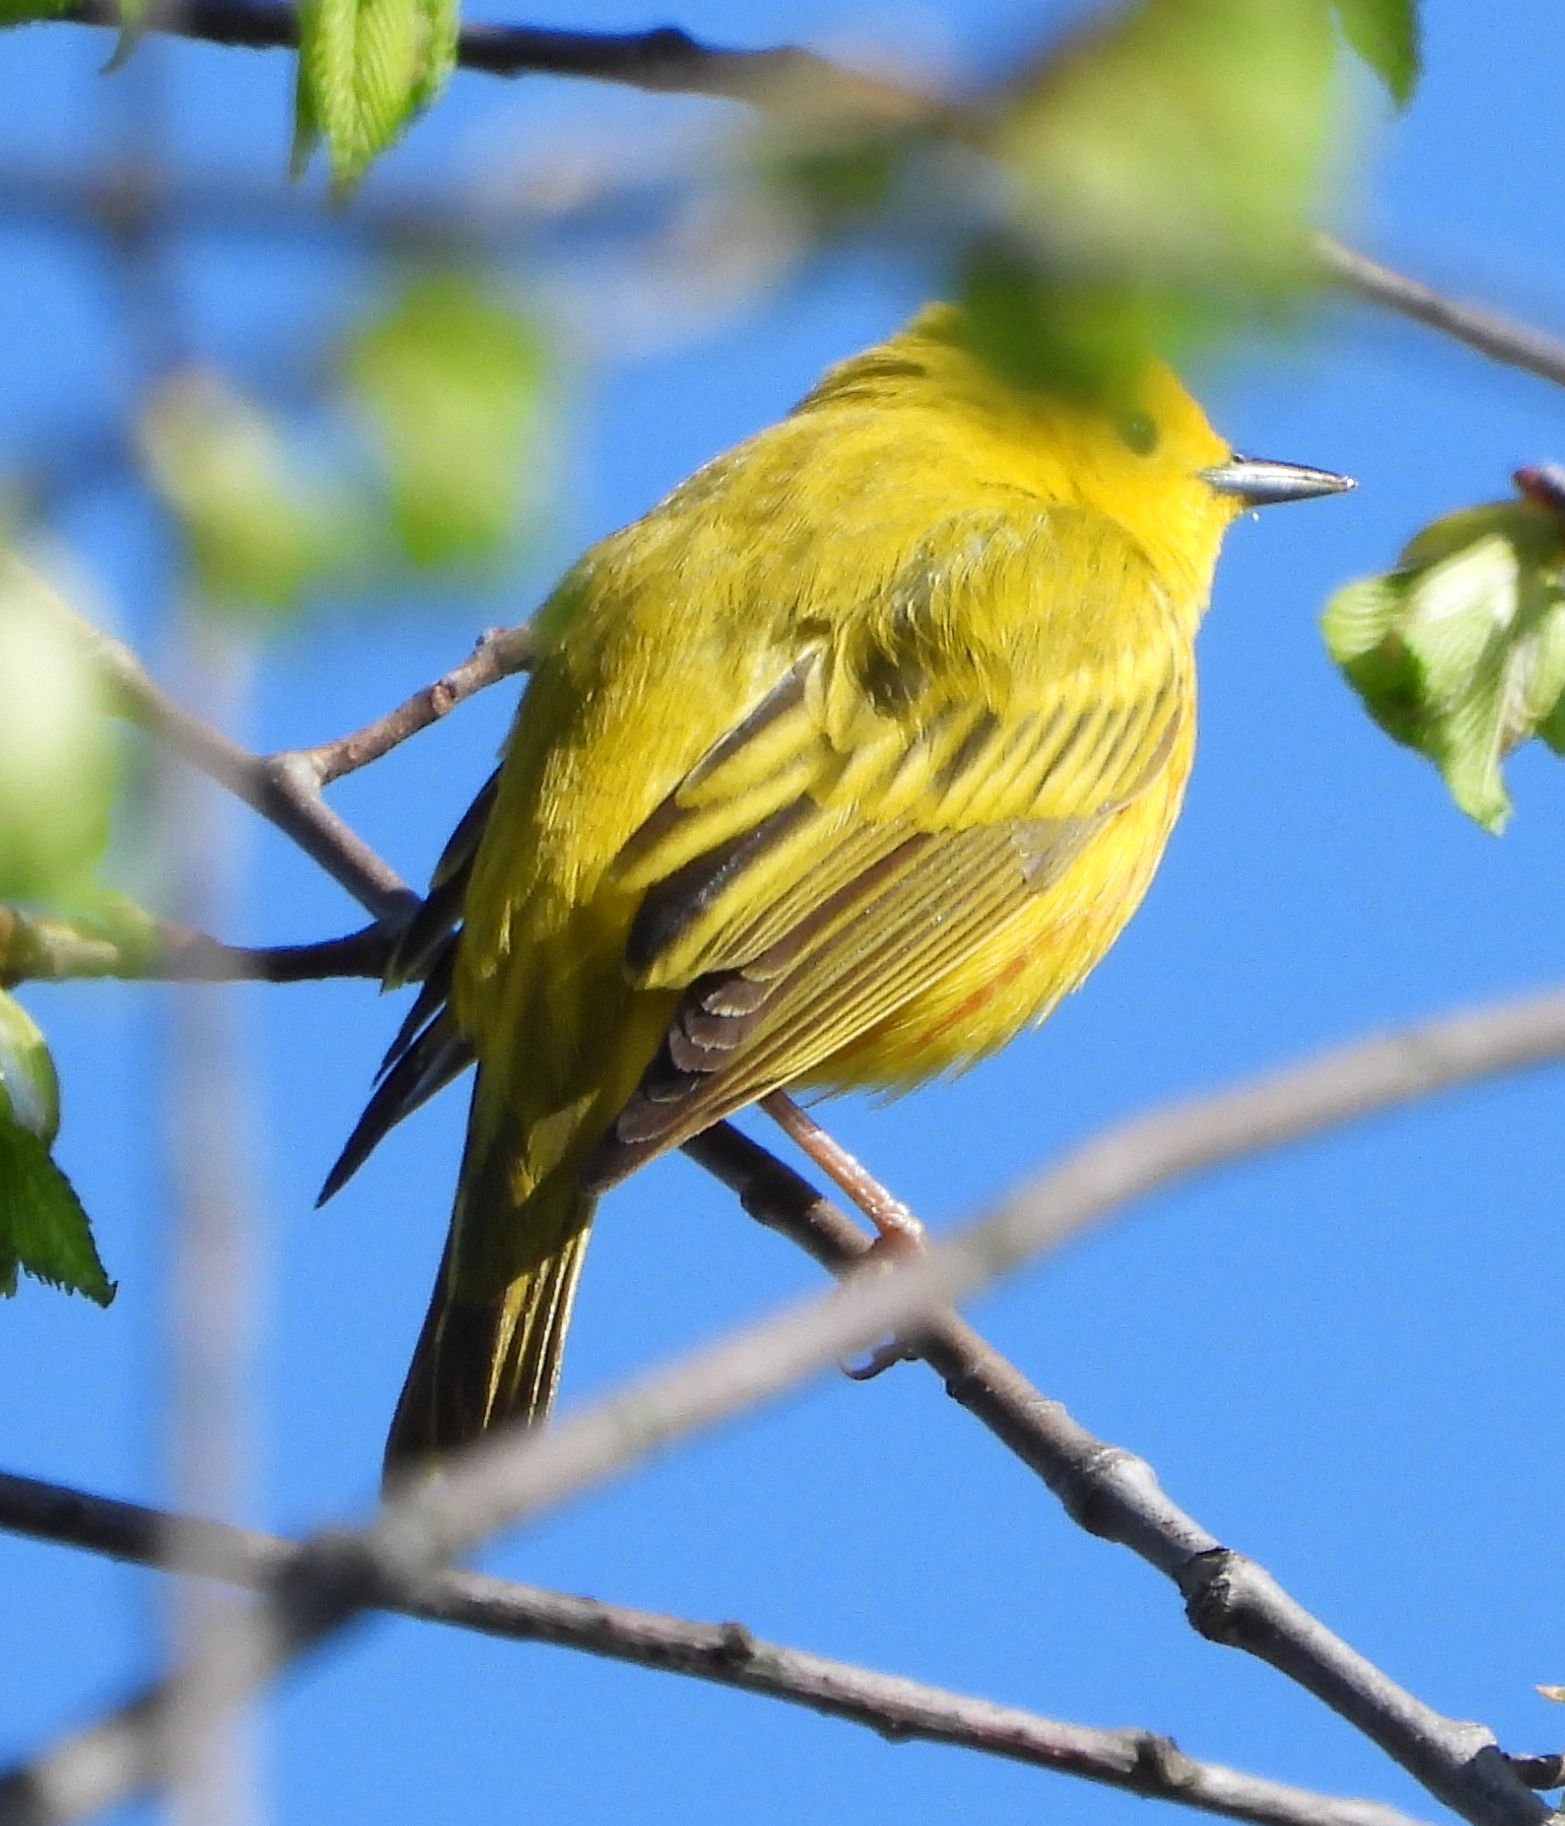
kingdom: Animalia
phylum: Chordata
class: Aves
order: Passeriformes
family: Parulidae
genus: Setophaga
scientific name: Setophaga petechia
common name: Yellow warbler
